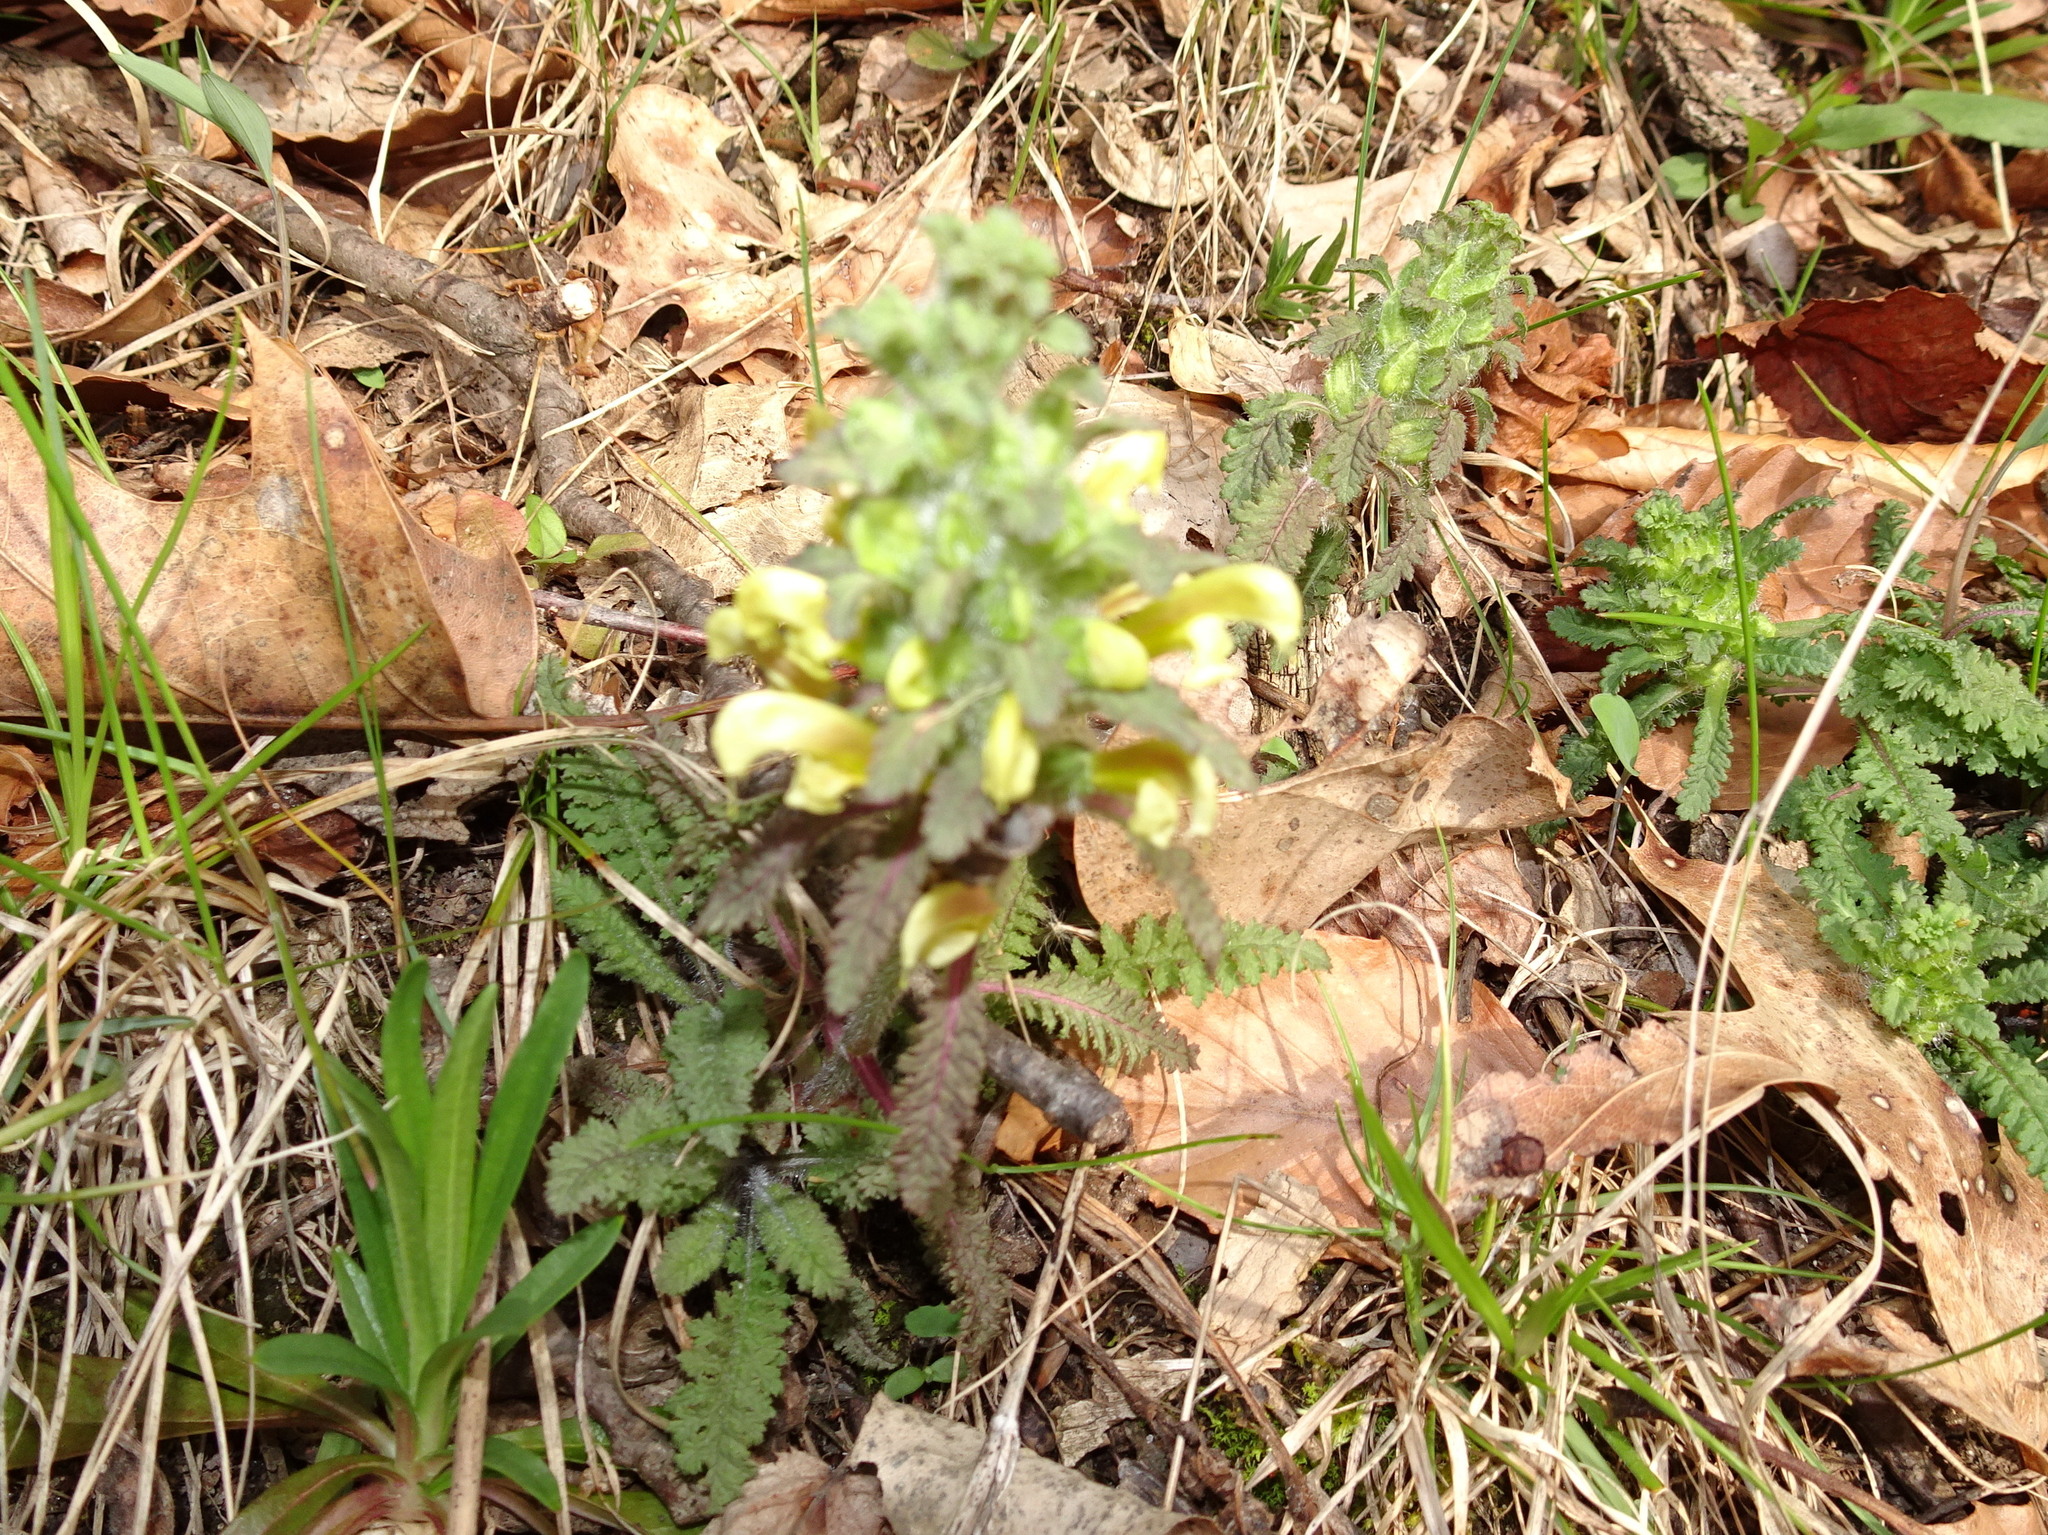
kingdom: Plantae
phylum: Tracheophyta
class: Magnoliopsida
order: Lamiales
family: Orobanchaceae
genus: Pedicularis
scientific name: Pedicularis canadensis
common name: Early lousewort
